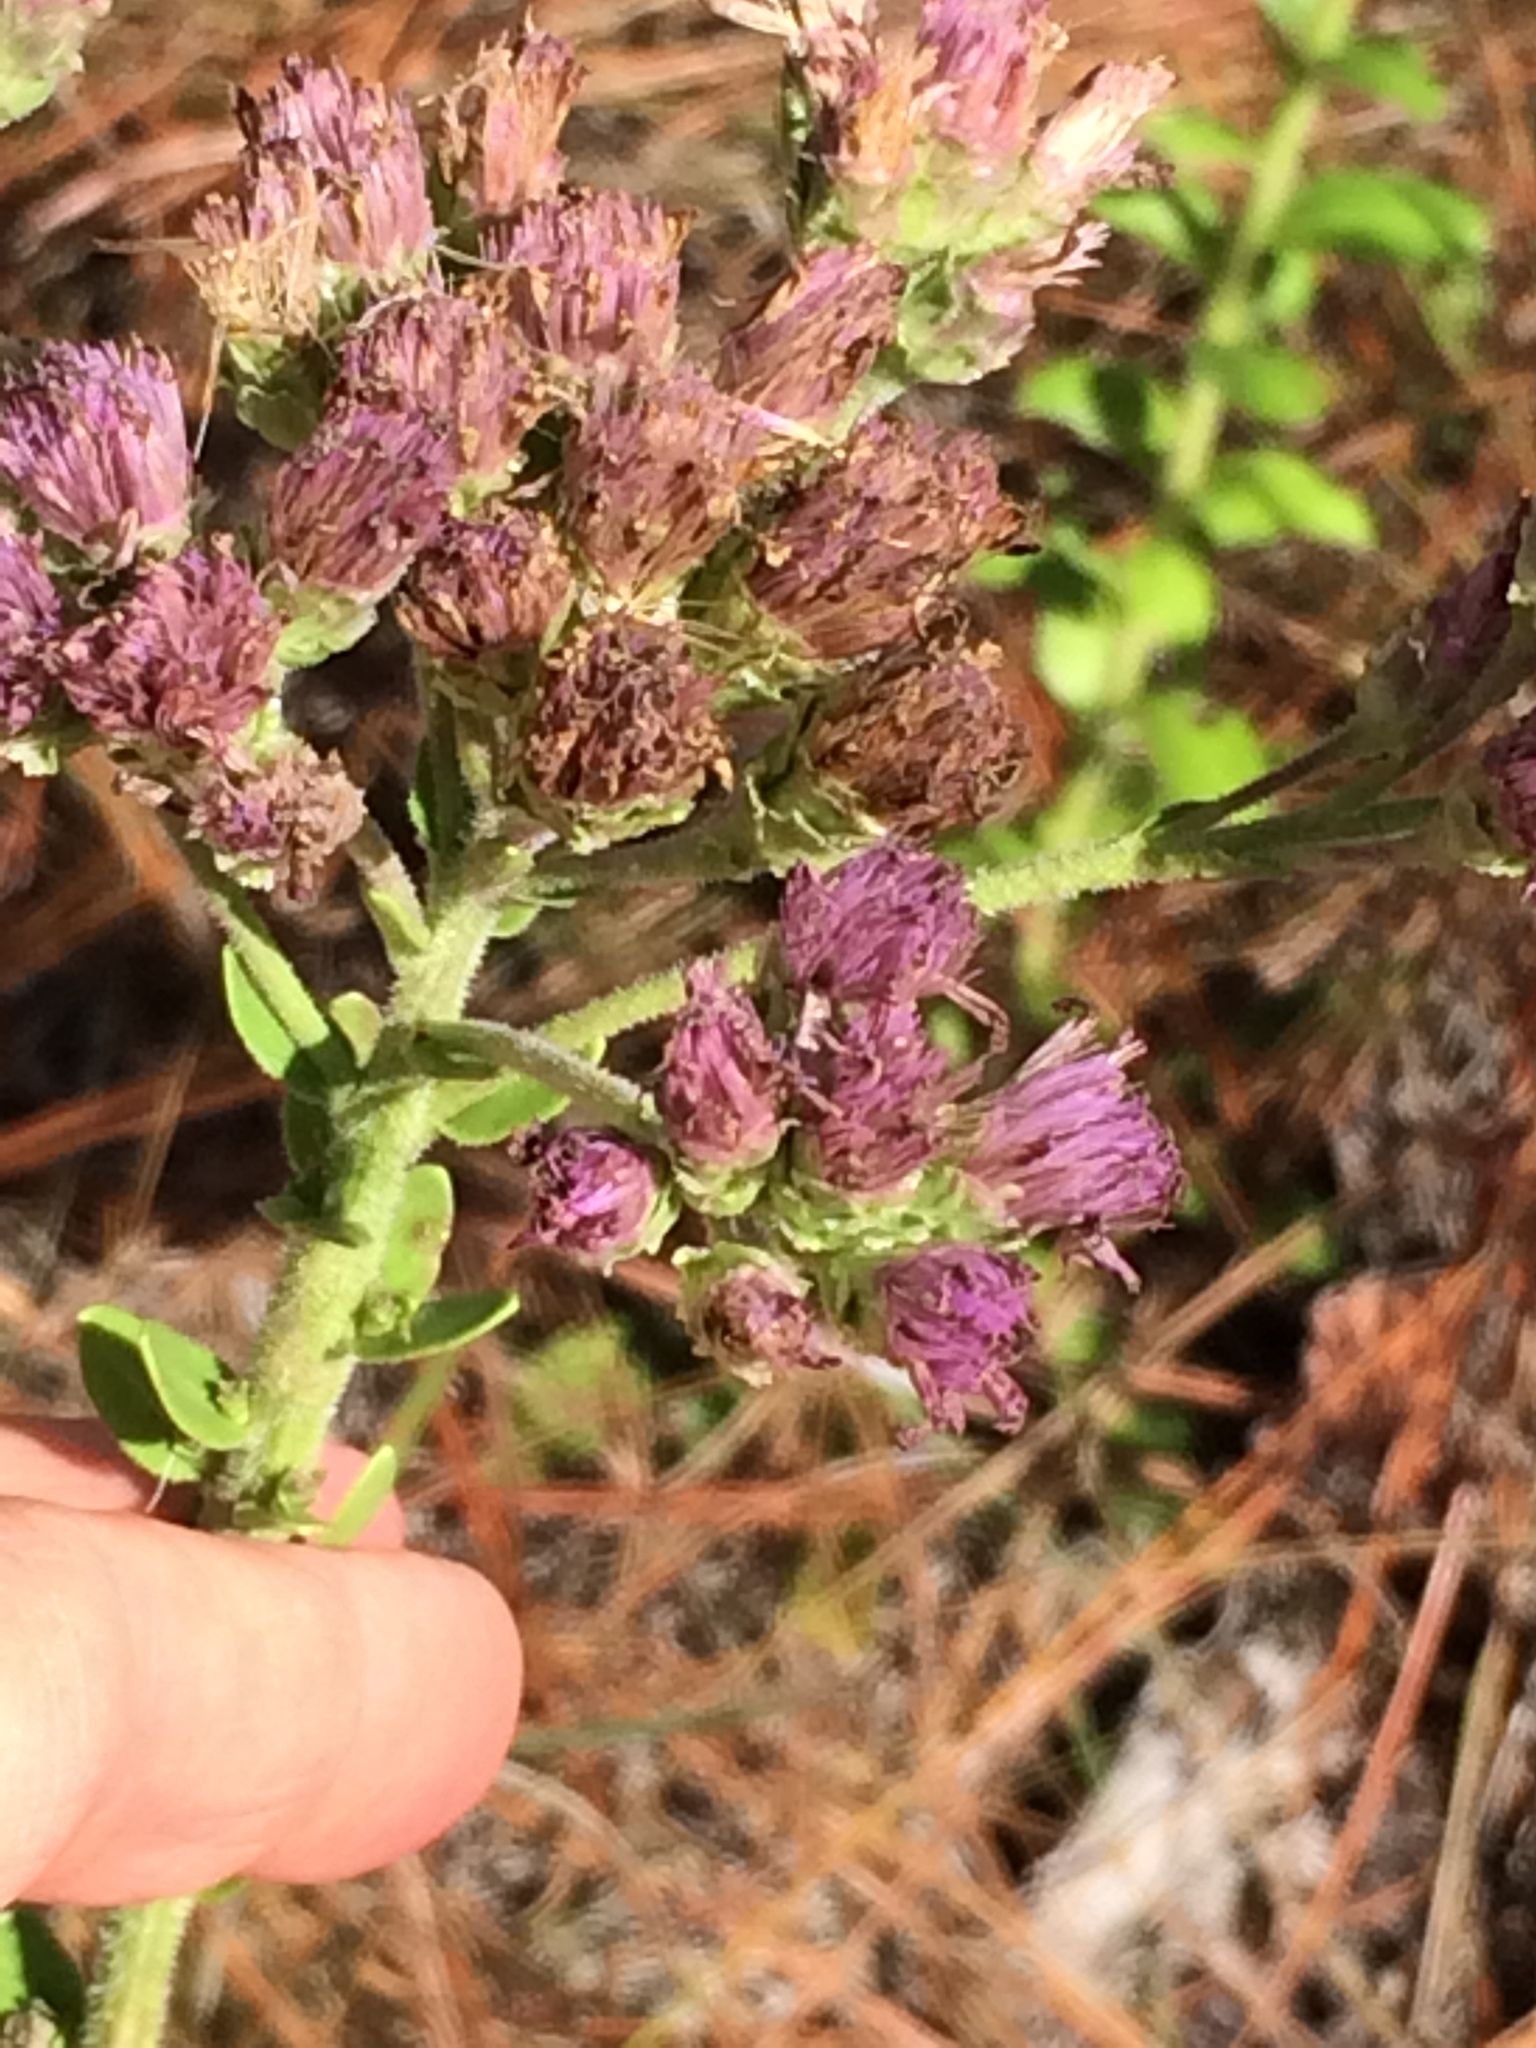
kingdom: Plantae
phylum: Tracheophyta
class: Magnoliopsida
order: Asterales
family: Asteraceae
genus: Carphephorus
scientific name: Carphephorus corymbosus
